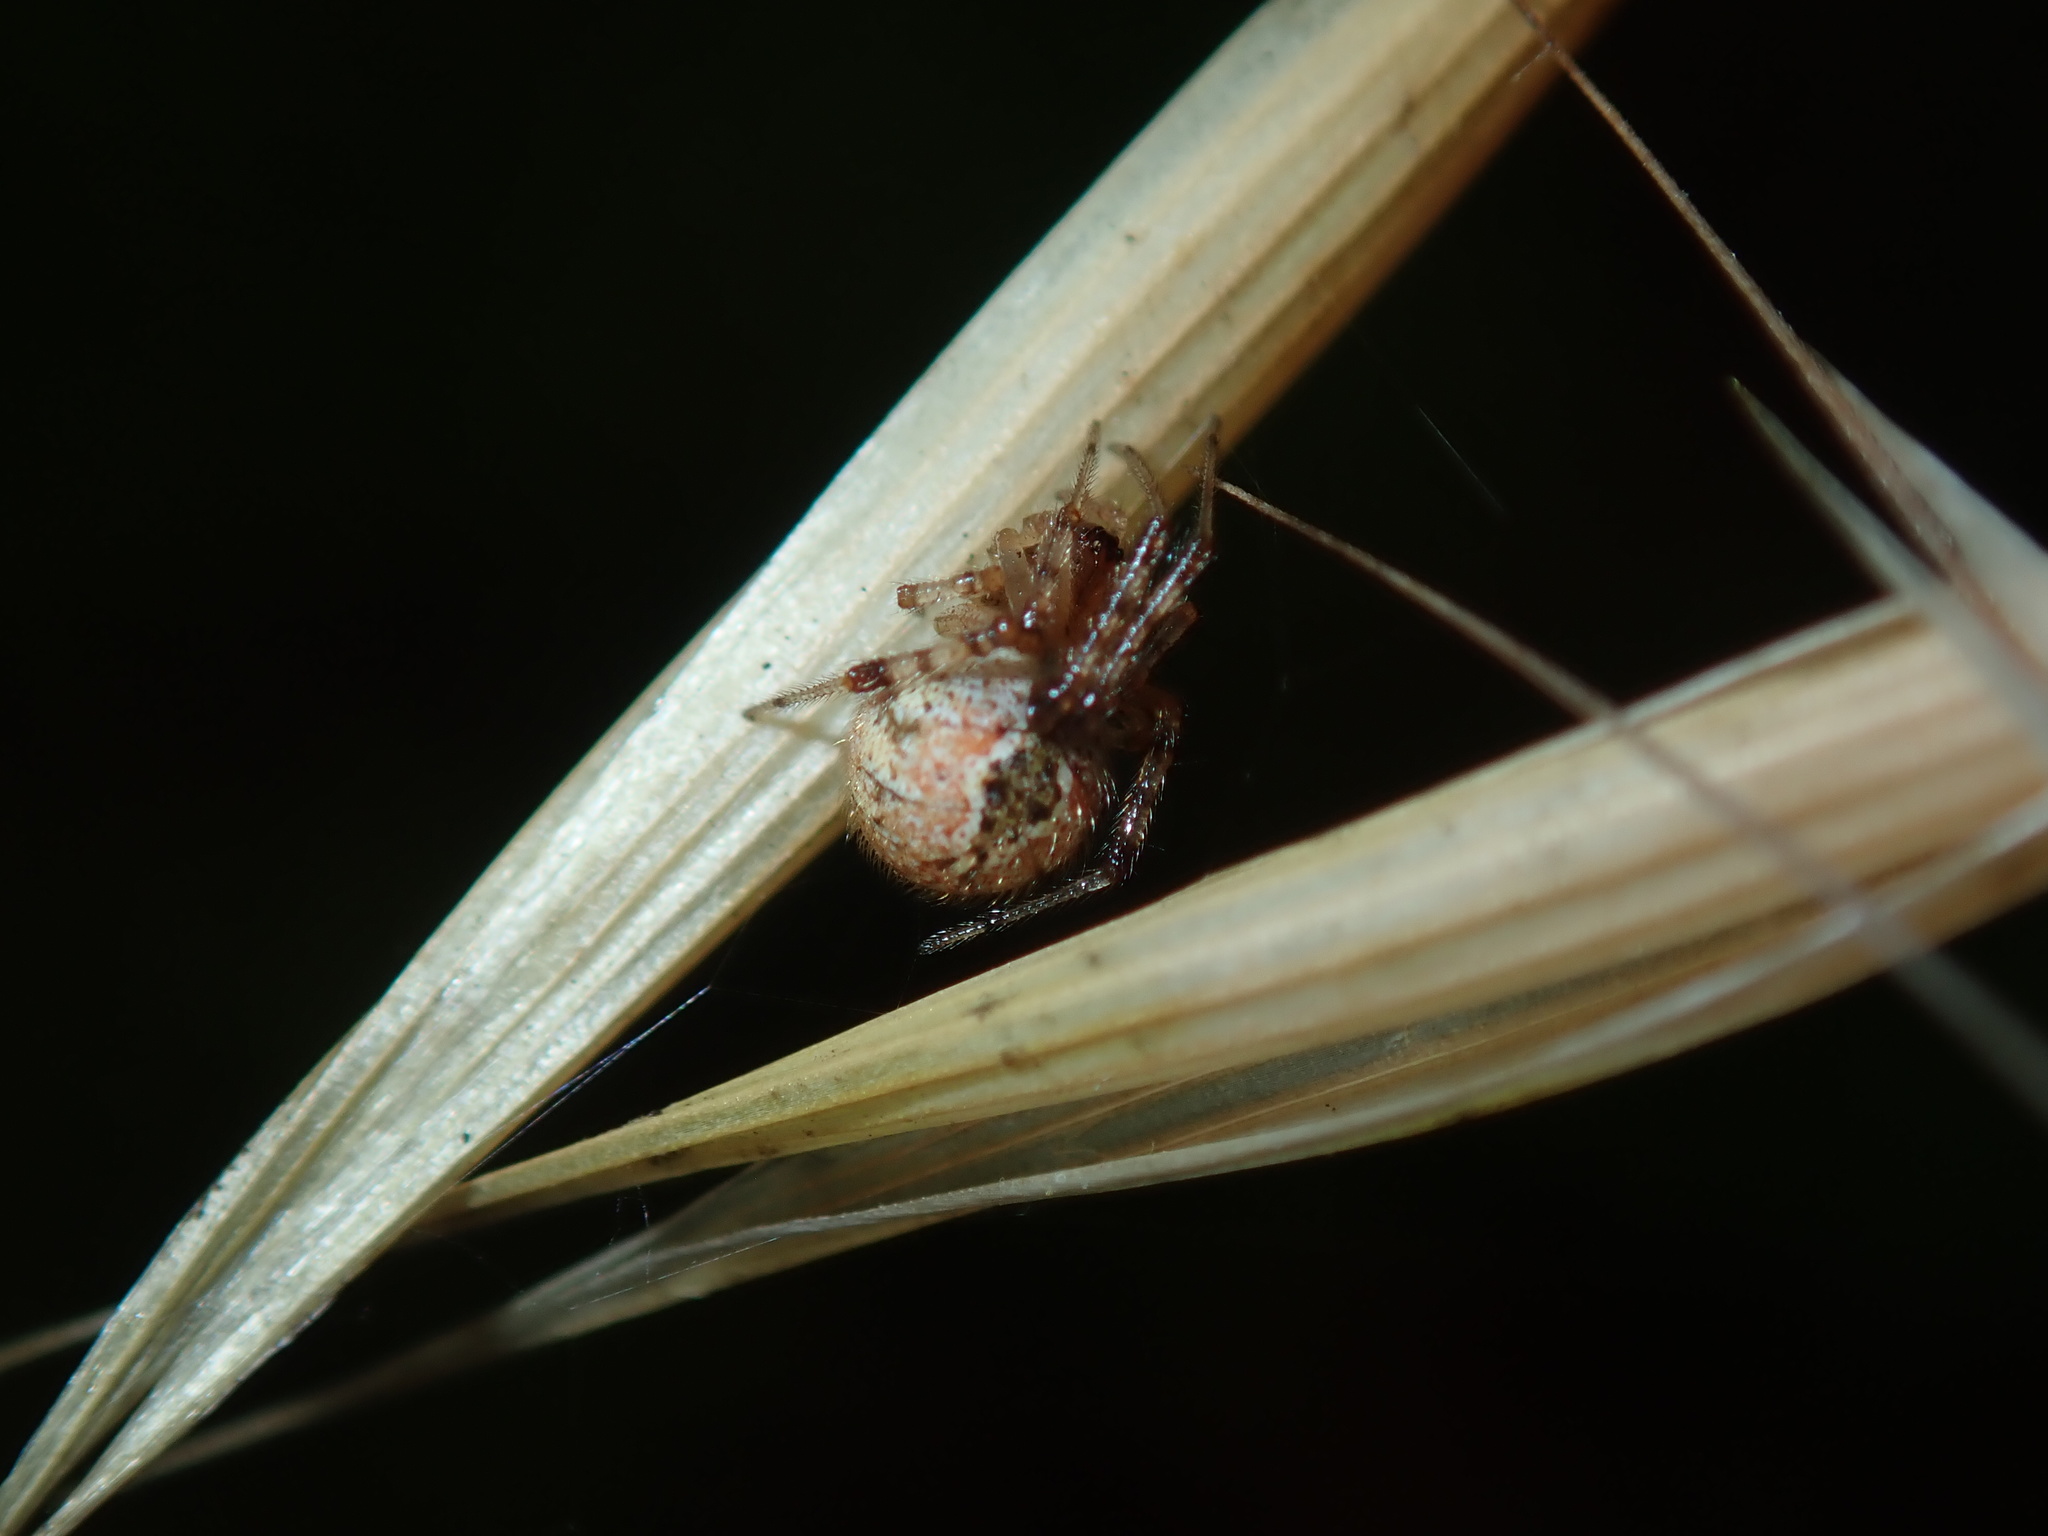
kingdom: Animalia
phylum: Arthropoda
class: Arachnida
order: Araneae
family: Theridiidae
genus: Cryptachaea
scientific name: Cryptachaea veruculata
